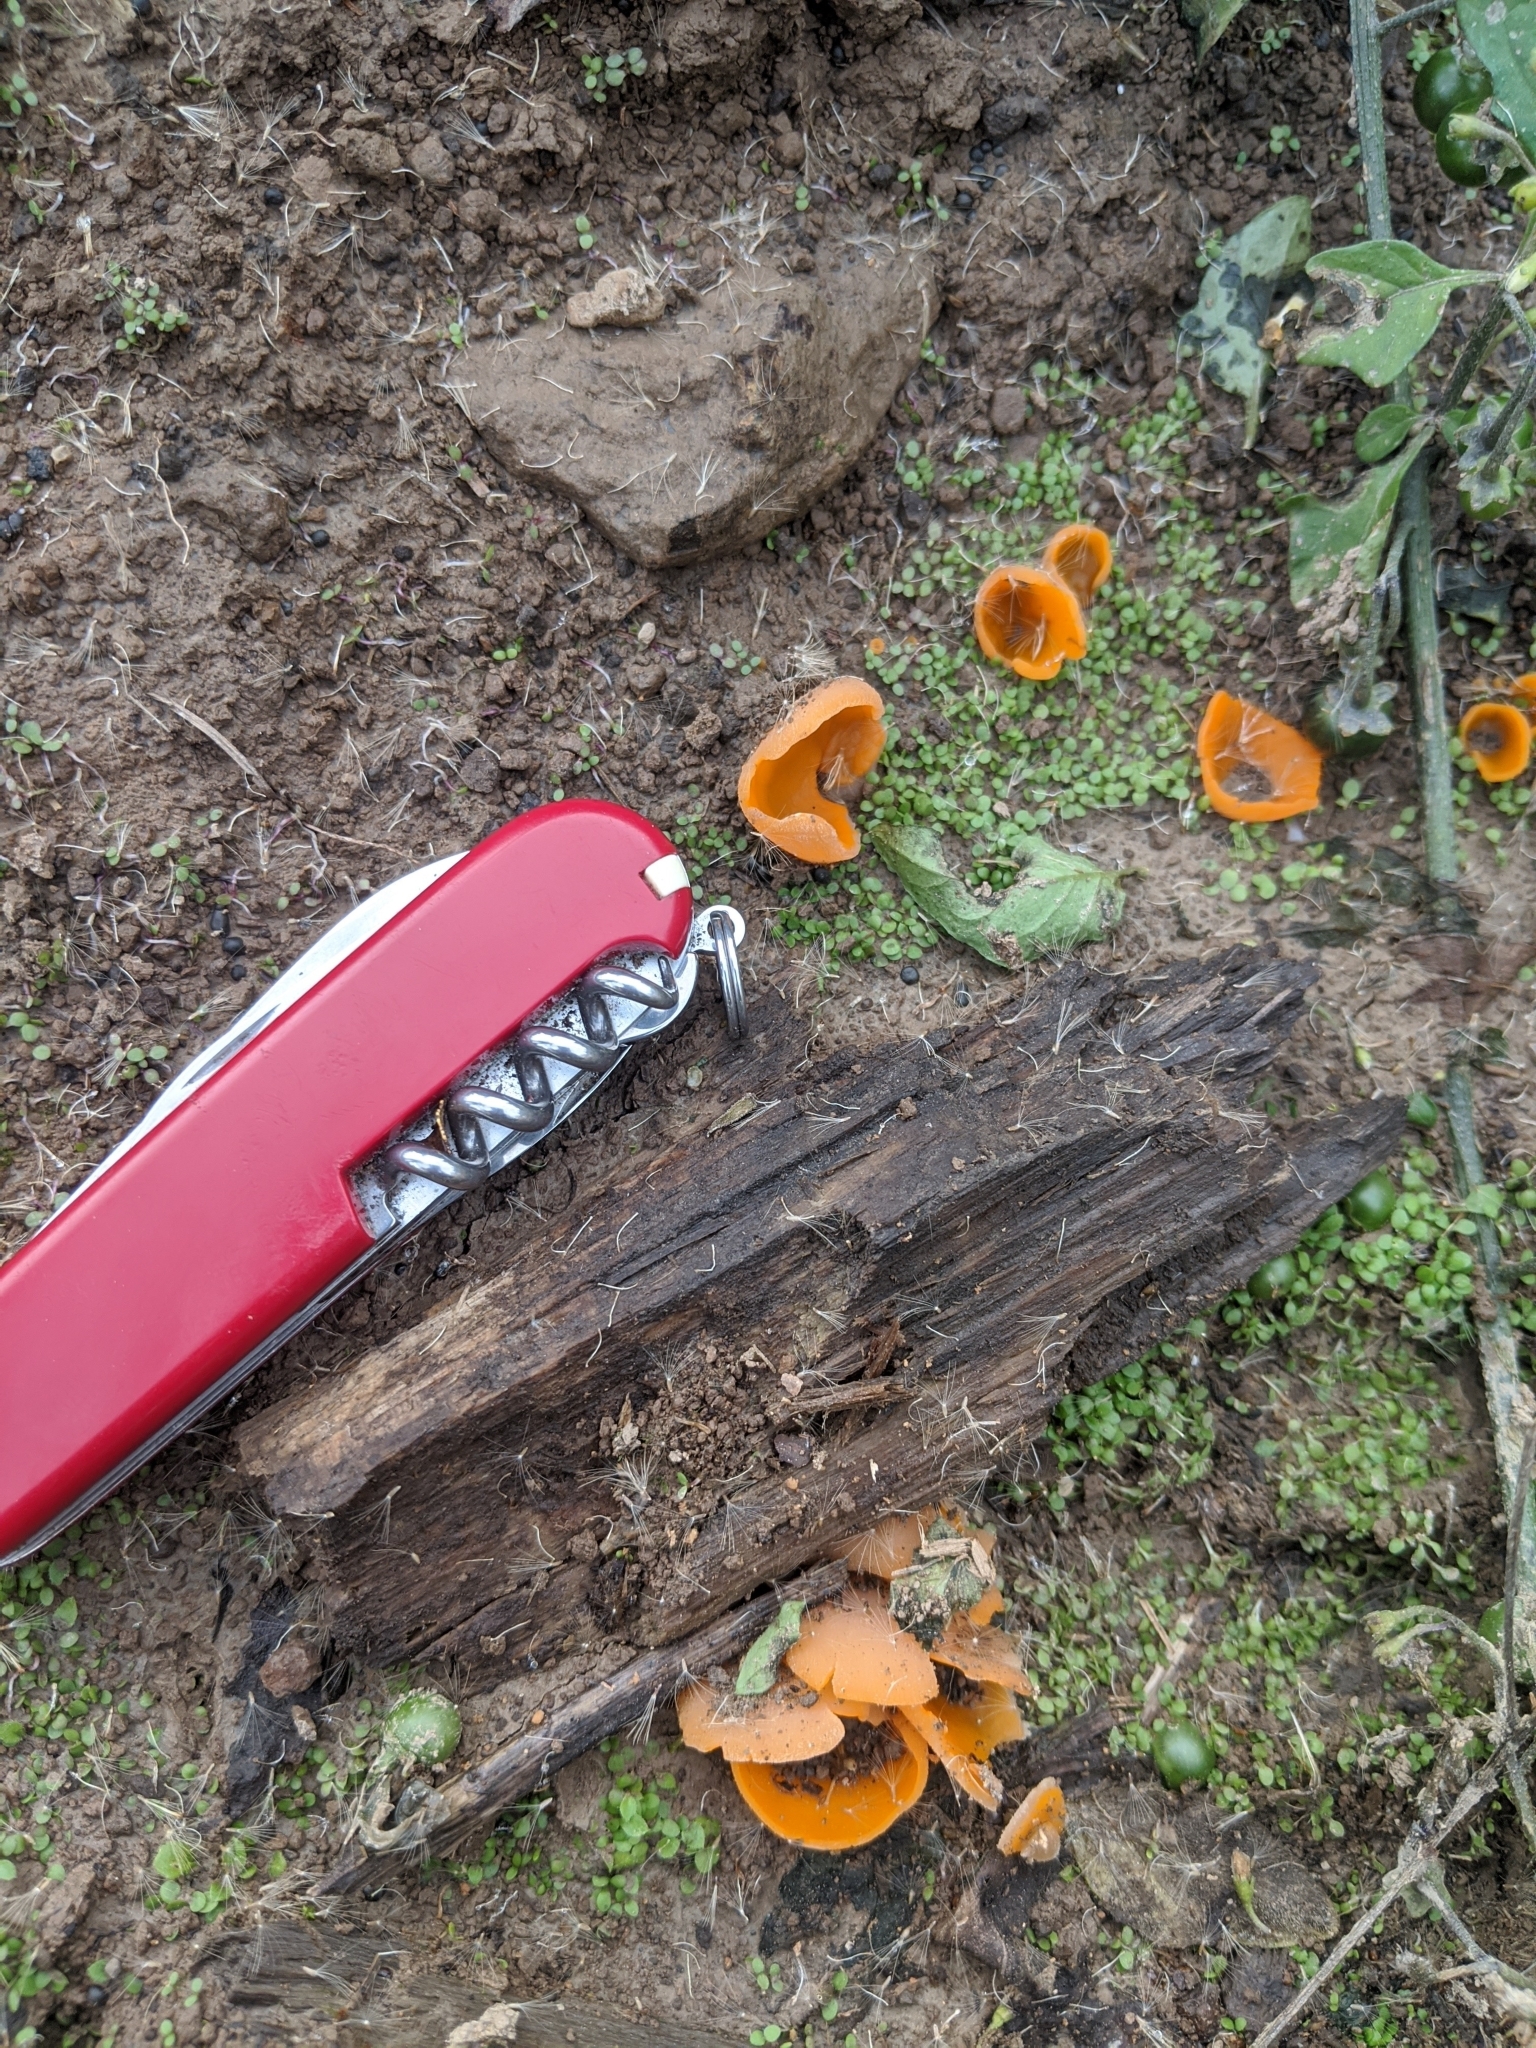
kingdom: Fungi
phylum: Ascomycota
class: Pezizomycetes
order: Pezizales
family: Pyronemataceae
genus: Aleuria
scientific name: Aleuria aurantia
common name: Orange peel fungus
